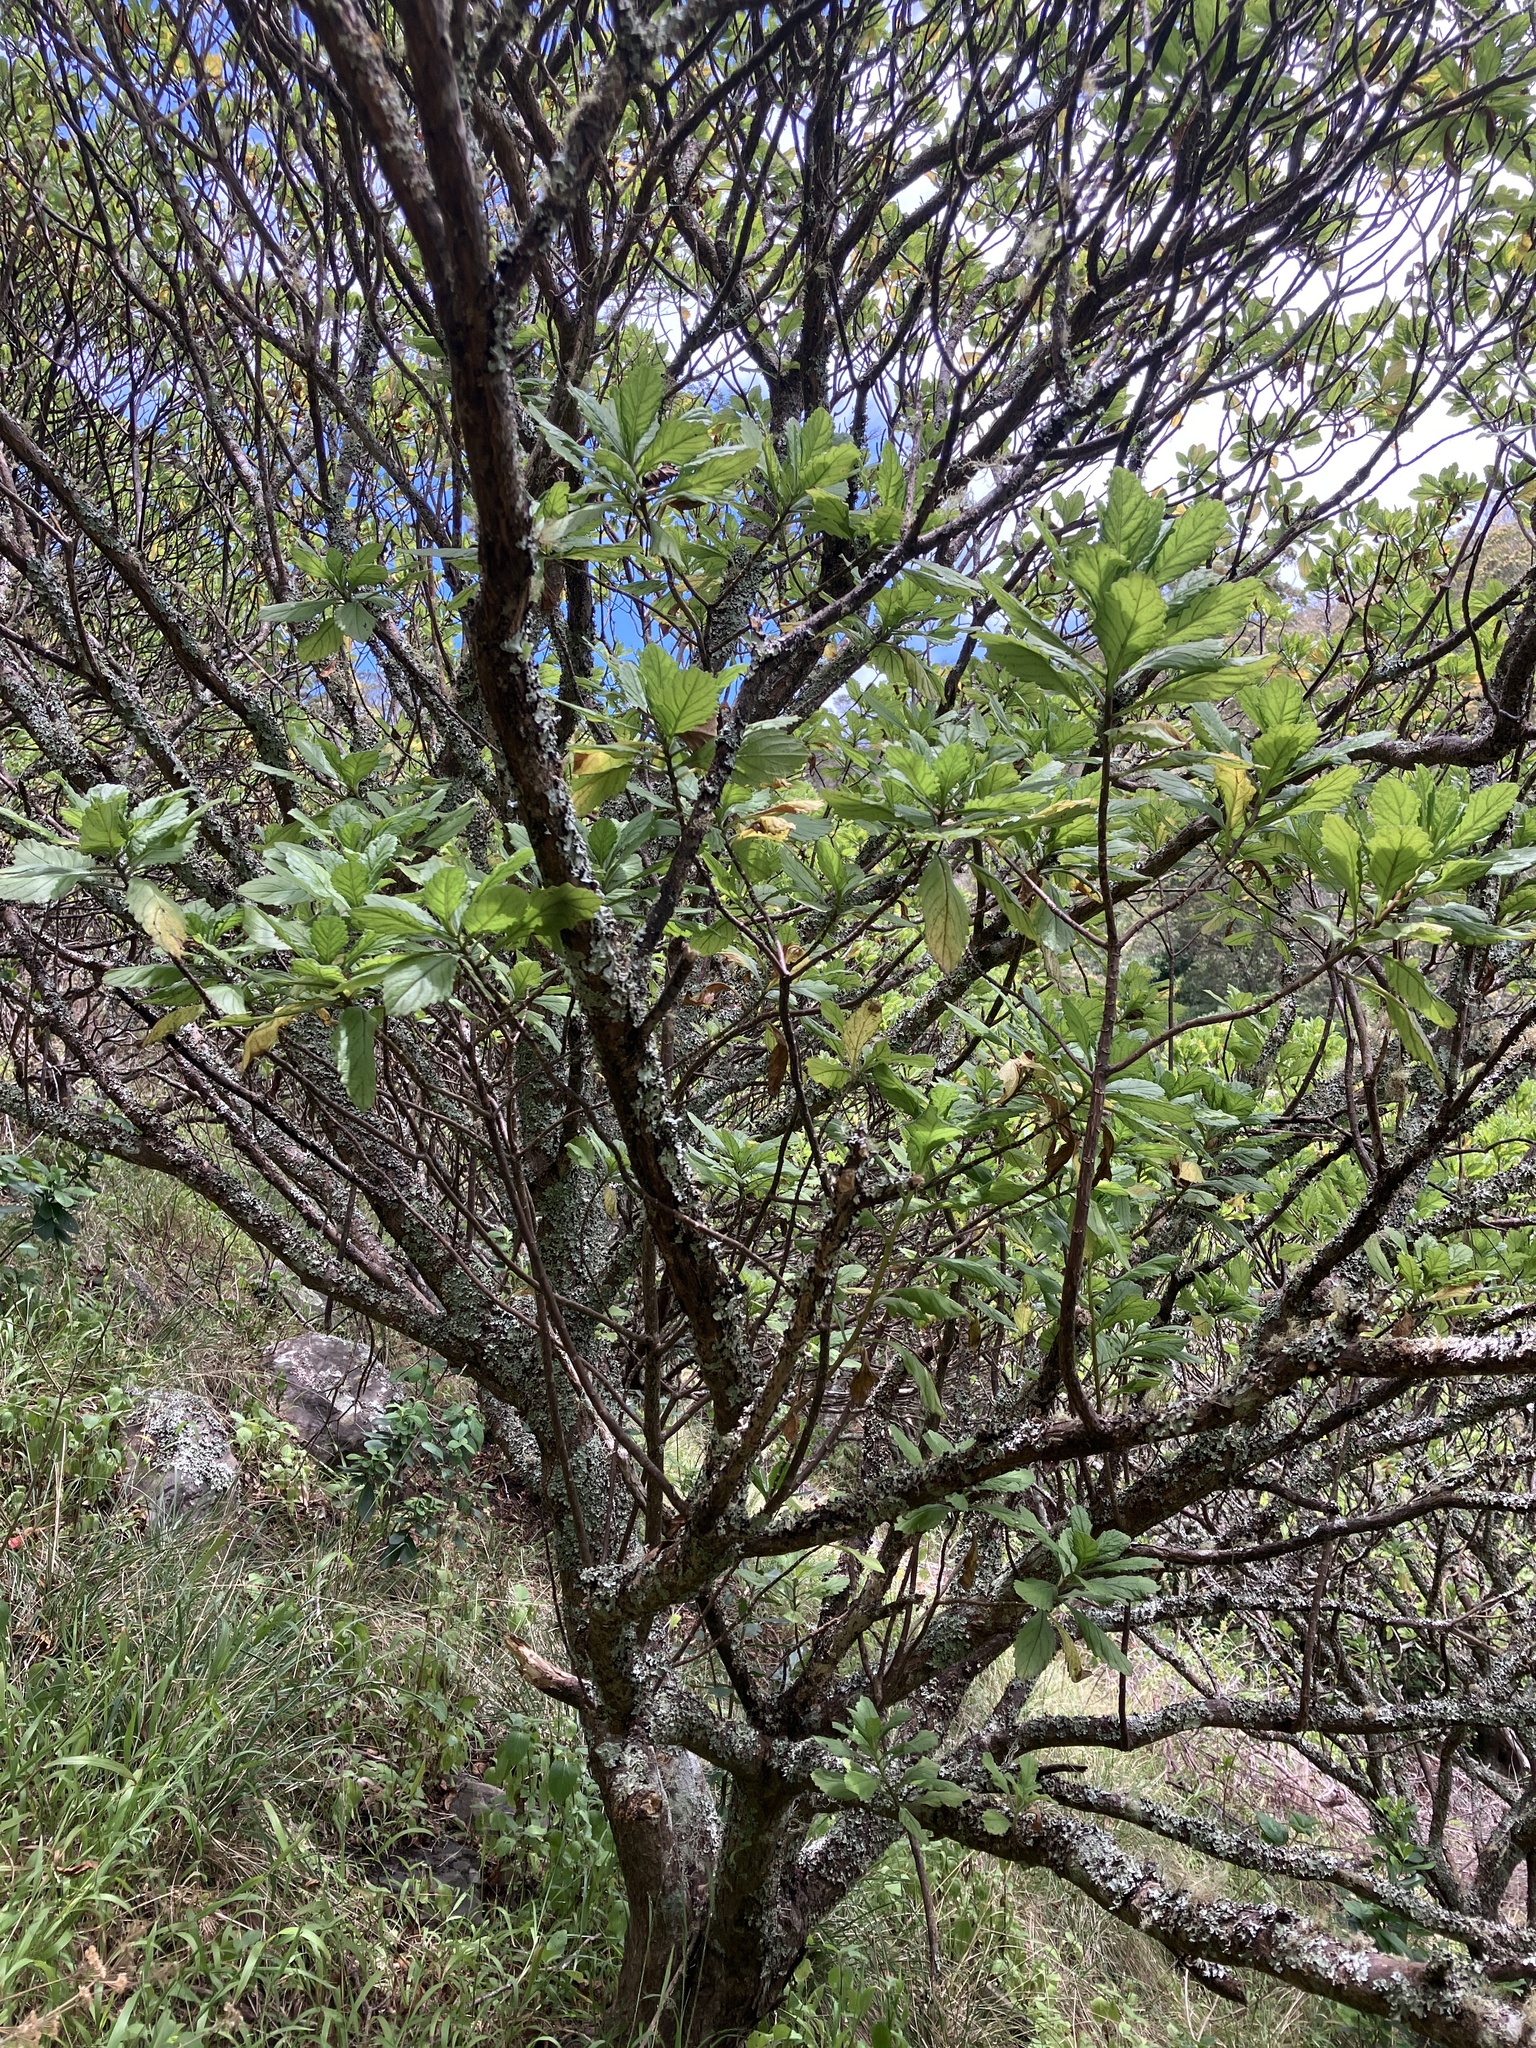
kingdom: Plantae
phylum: Tracheophyta
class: Magnoliopsida
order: Asterales
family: Asteraceae
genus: Commidendrum
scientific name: Commidendrum rotundifolium
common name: Bastard gumwood
